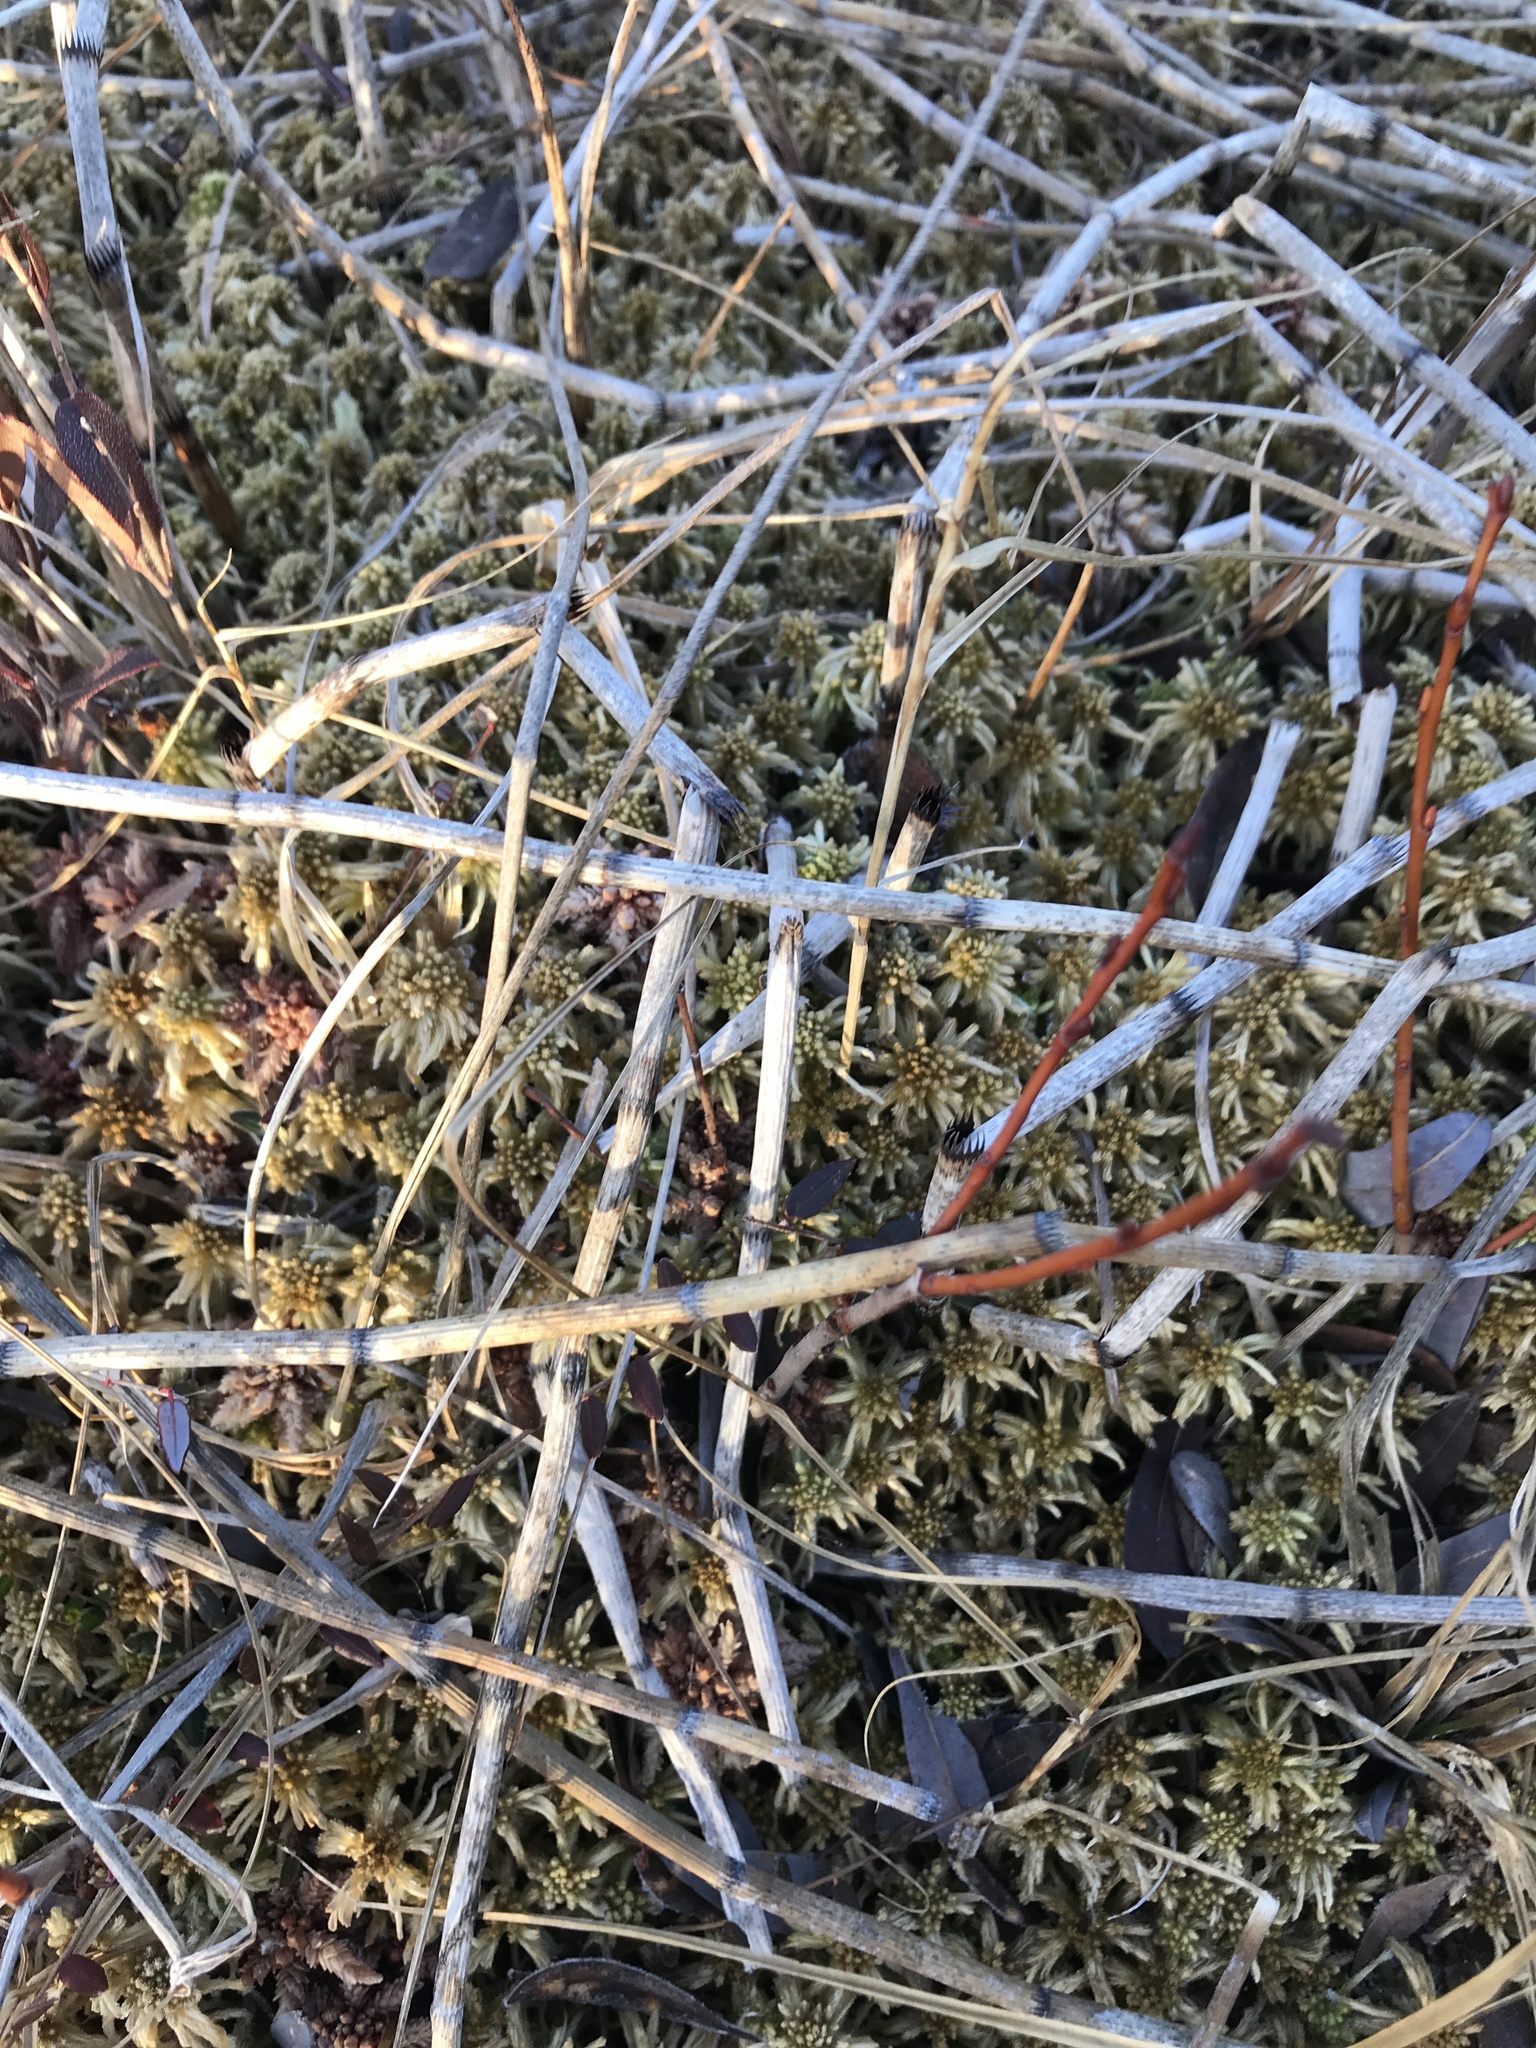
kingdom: Plantae
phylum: Tracheophyta
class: Polypodiopsida
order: Equisetales
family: Equisetaceae
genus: Equisetum
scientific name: Equisetum fluviatile
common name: Water horsetail
